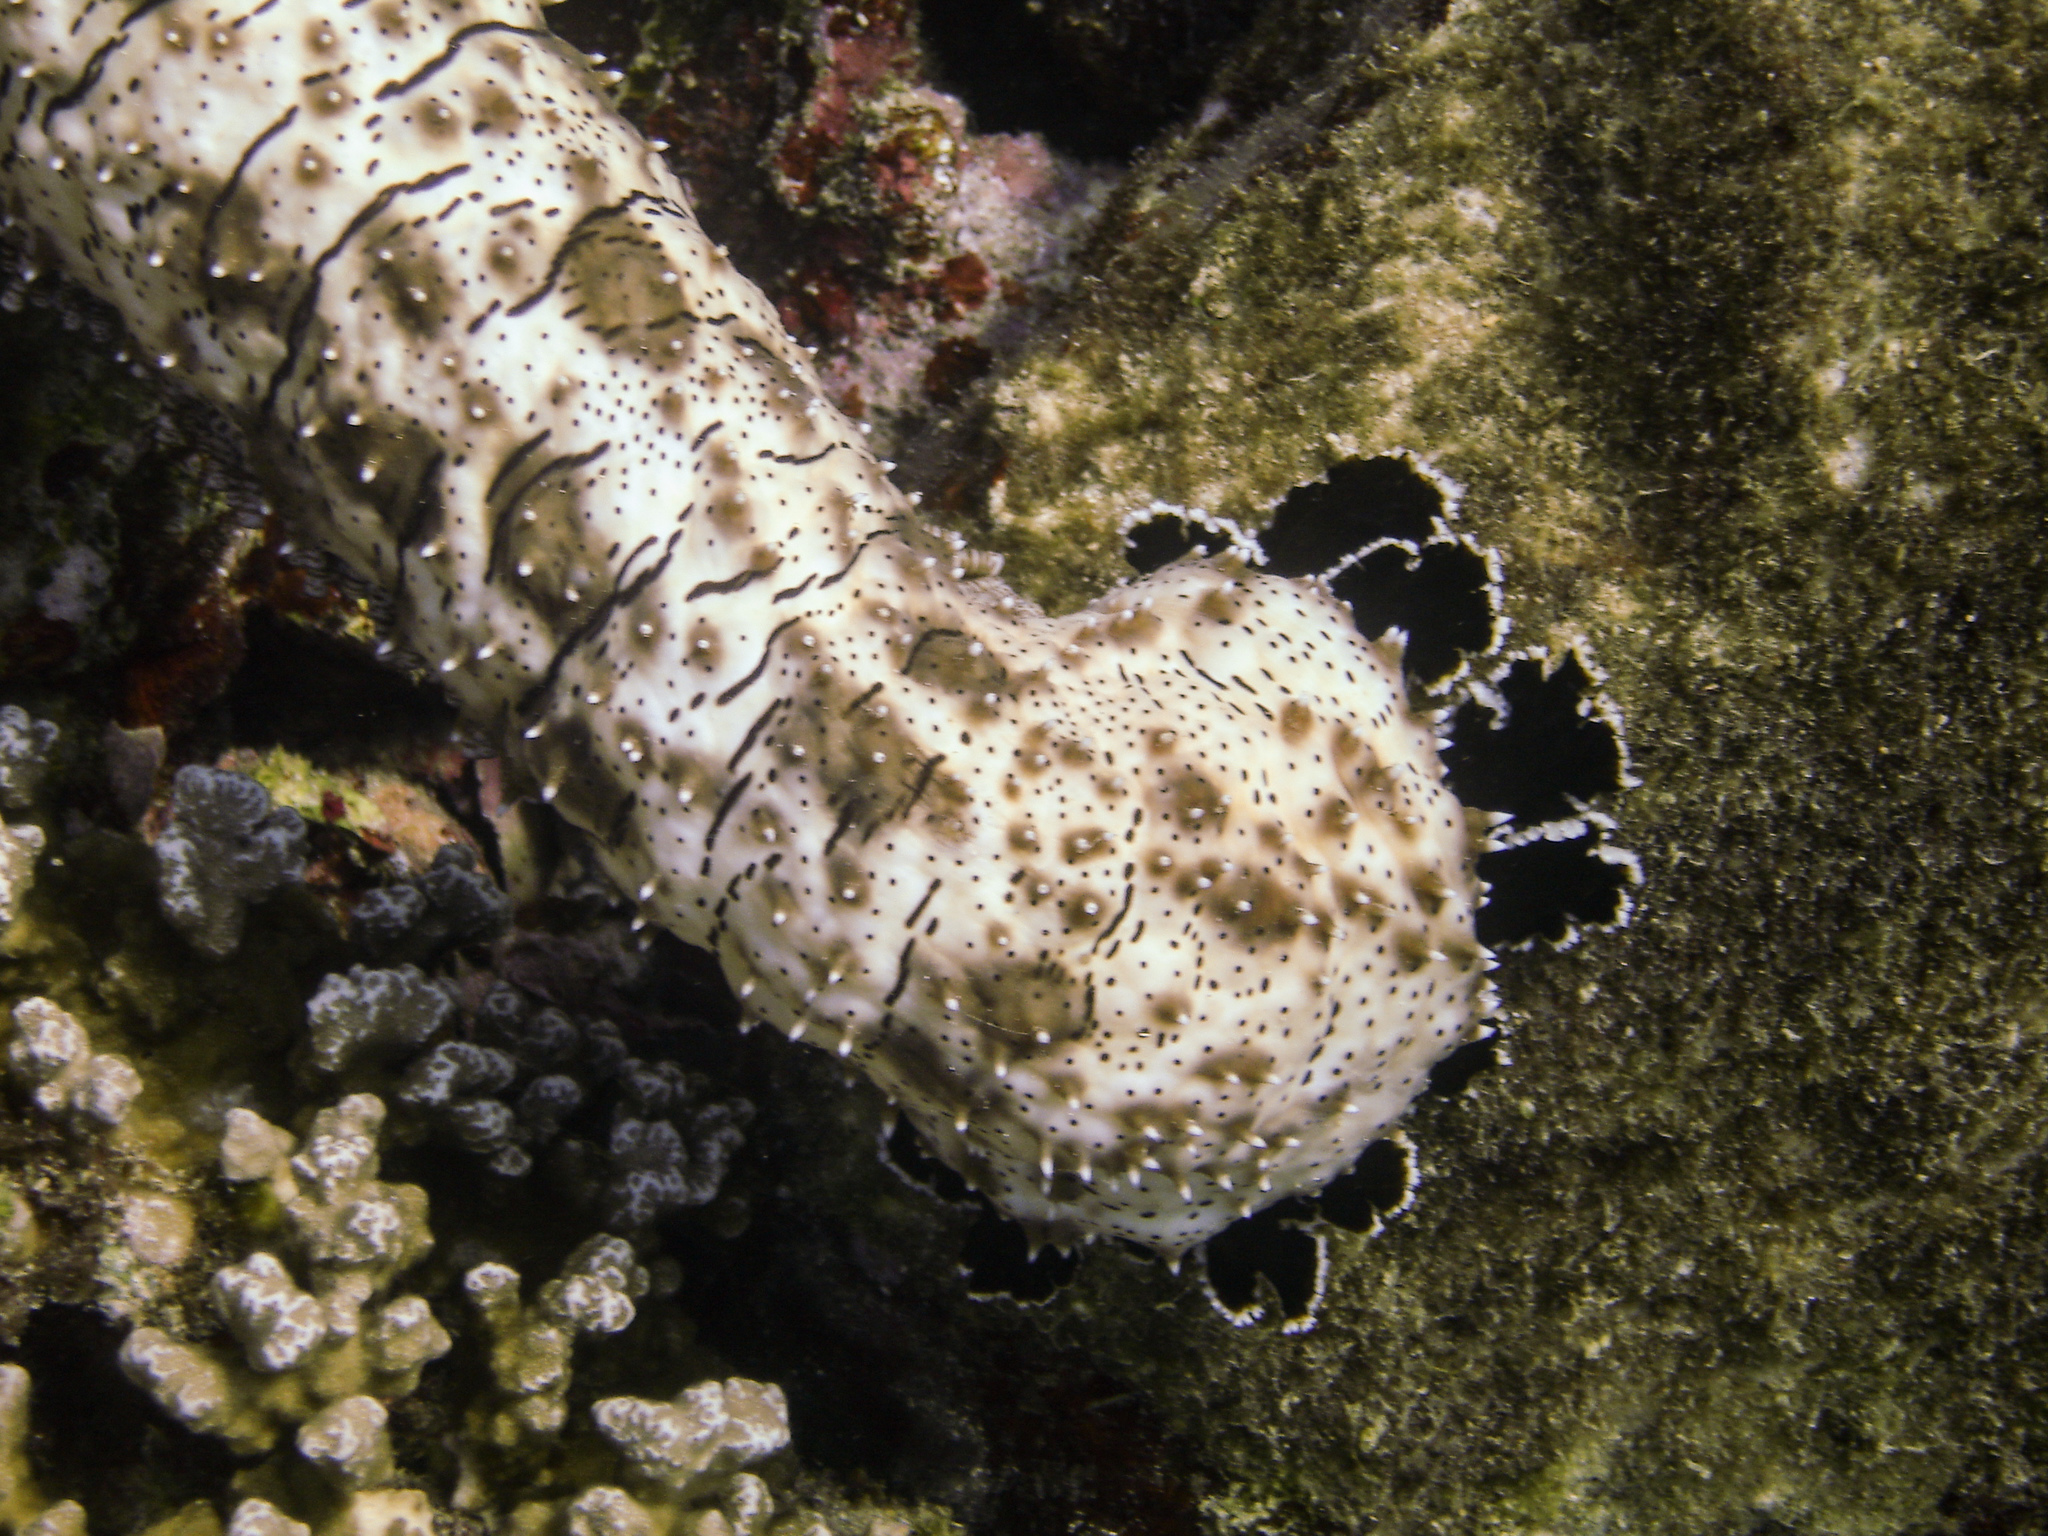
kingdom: Animalia
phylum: Echinodermata
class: Holothuroidea
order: Holothuriida
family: Holothuriidae
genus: Pearsonothuria
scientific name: Pearsonothuria graeffei
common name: Blackspotted sea cucumber
